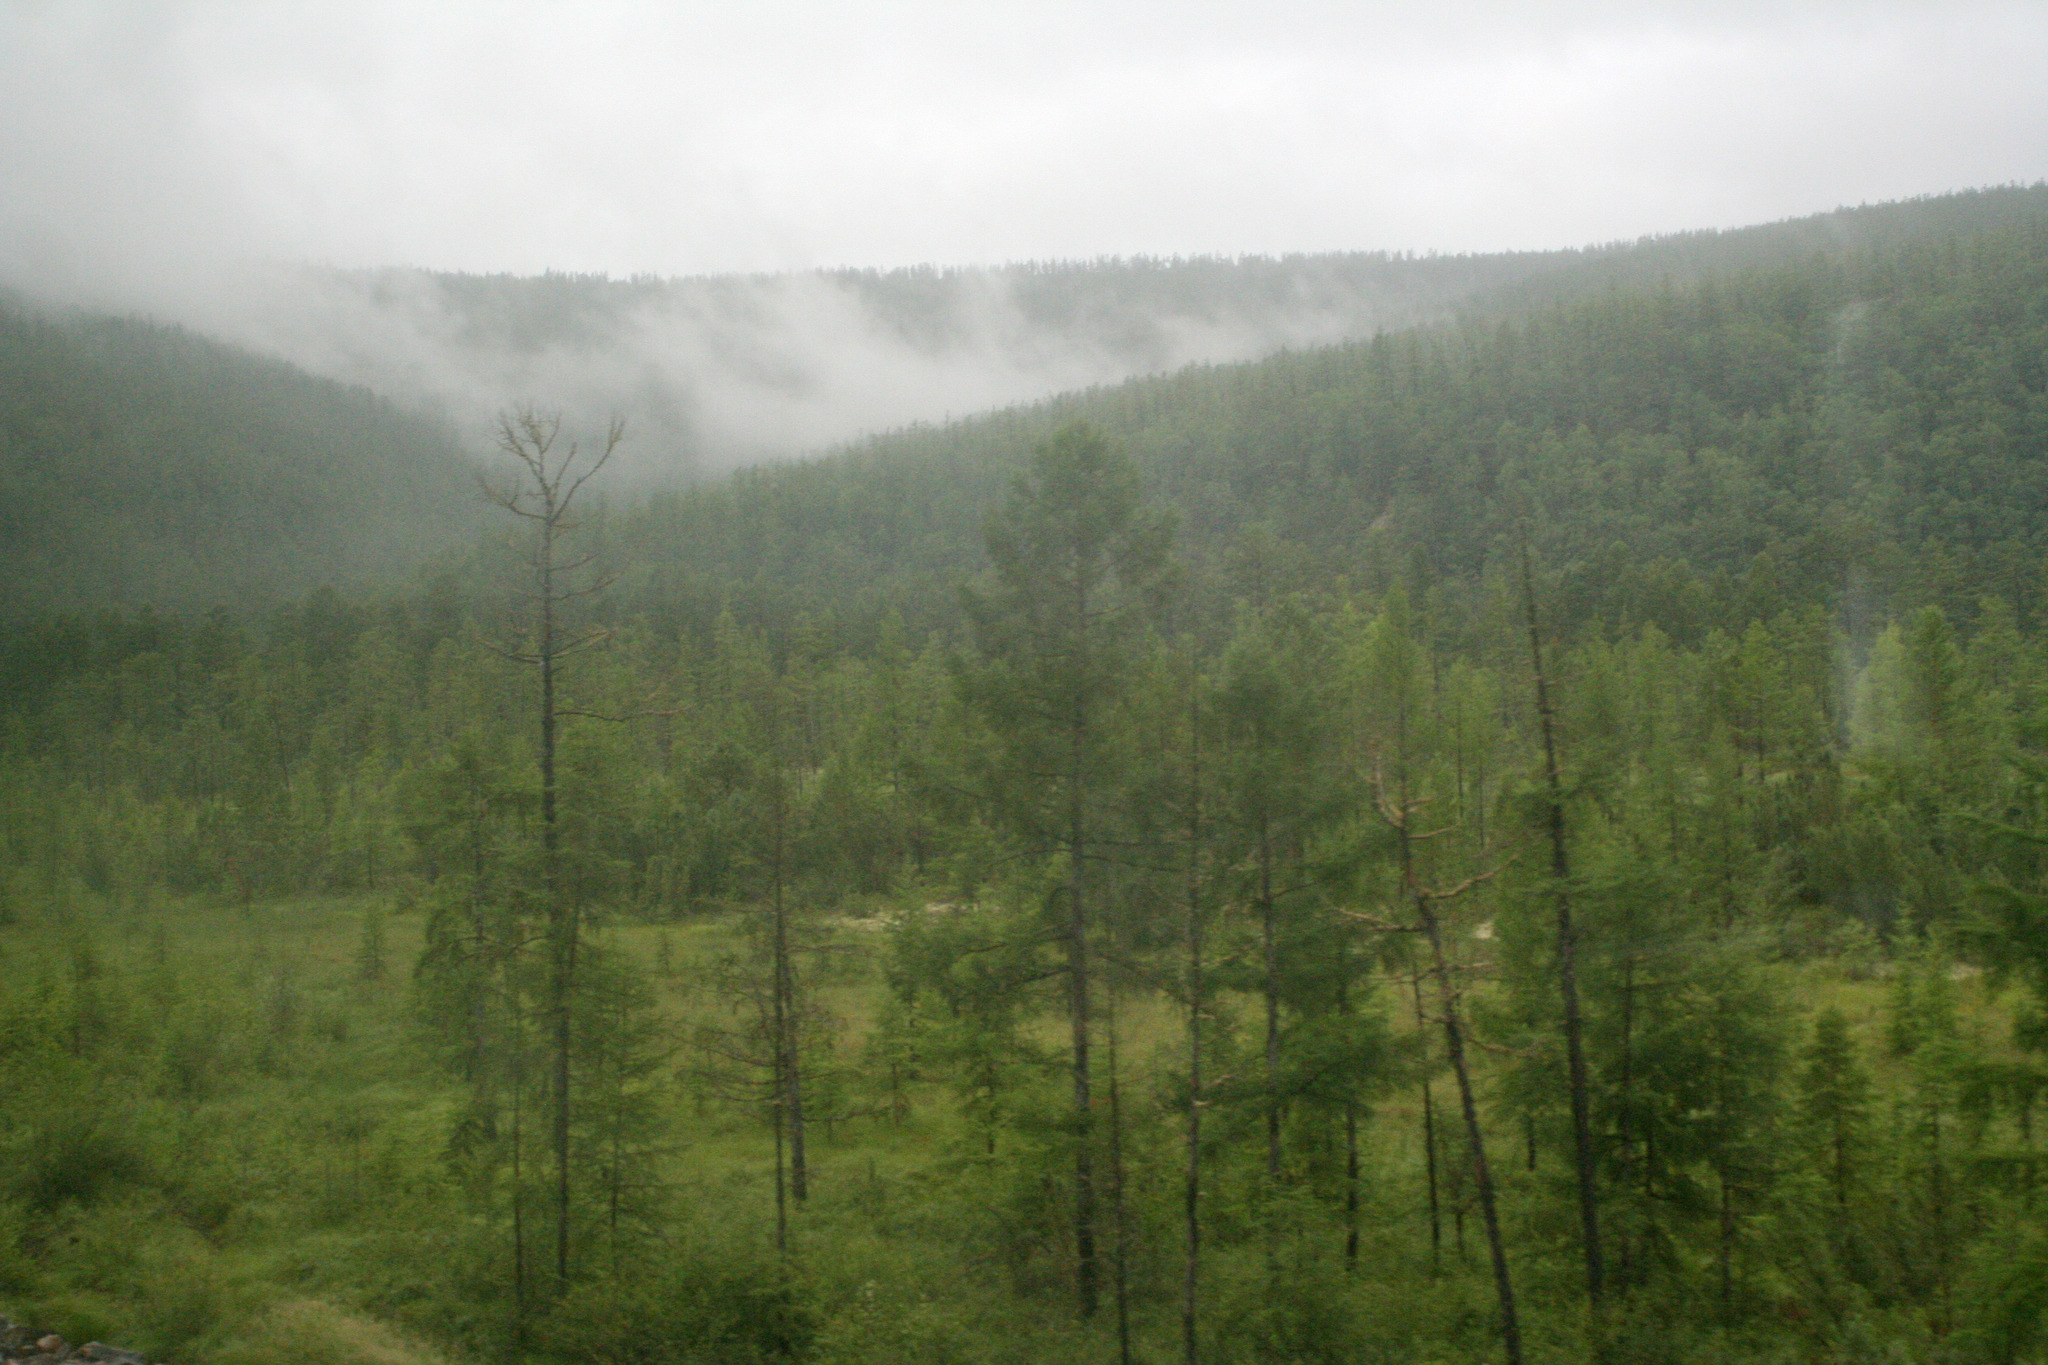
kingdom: Plantae
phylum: Tracheophyta
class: Pinopsida
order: Pinales
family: Pinaceae
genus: Larix
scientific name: Larix gmelinii
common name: Dahurian larch
